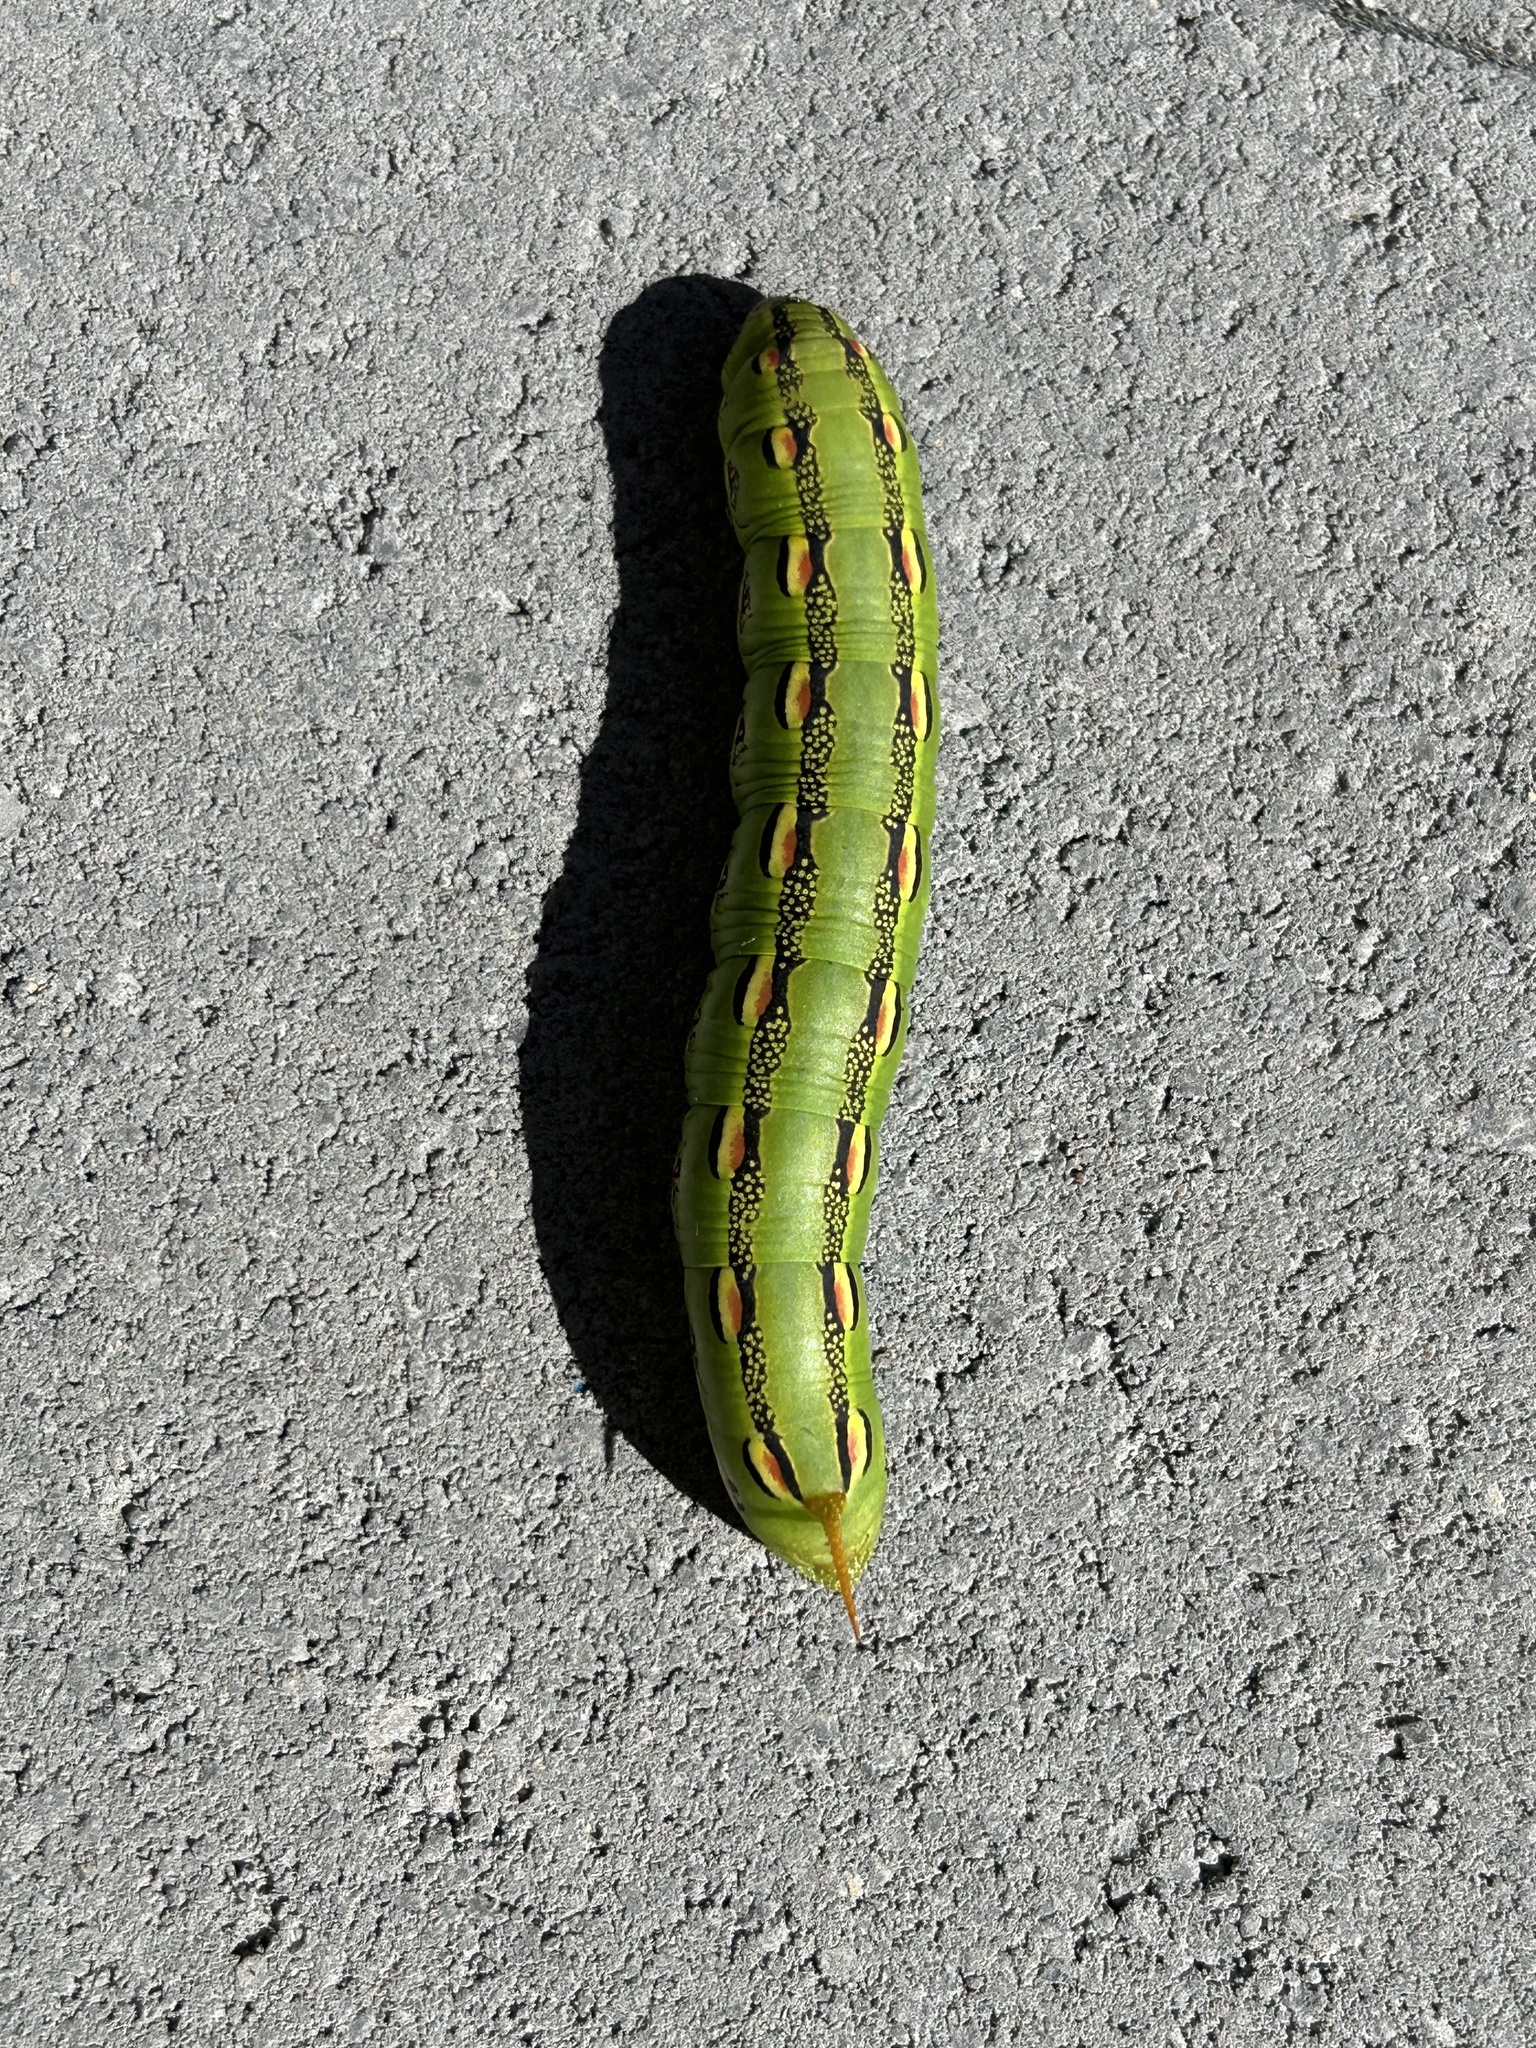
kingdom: Animalia
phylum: Arthropoda
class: Insecta
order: Lepidoptera
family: Sphingidae
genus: Hyles
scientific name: Hyles lineata
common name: White-lined sphinx
